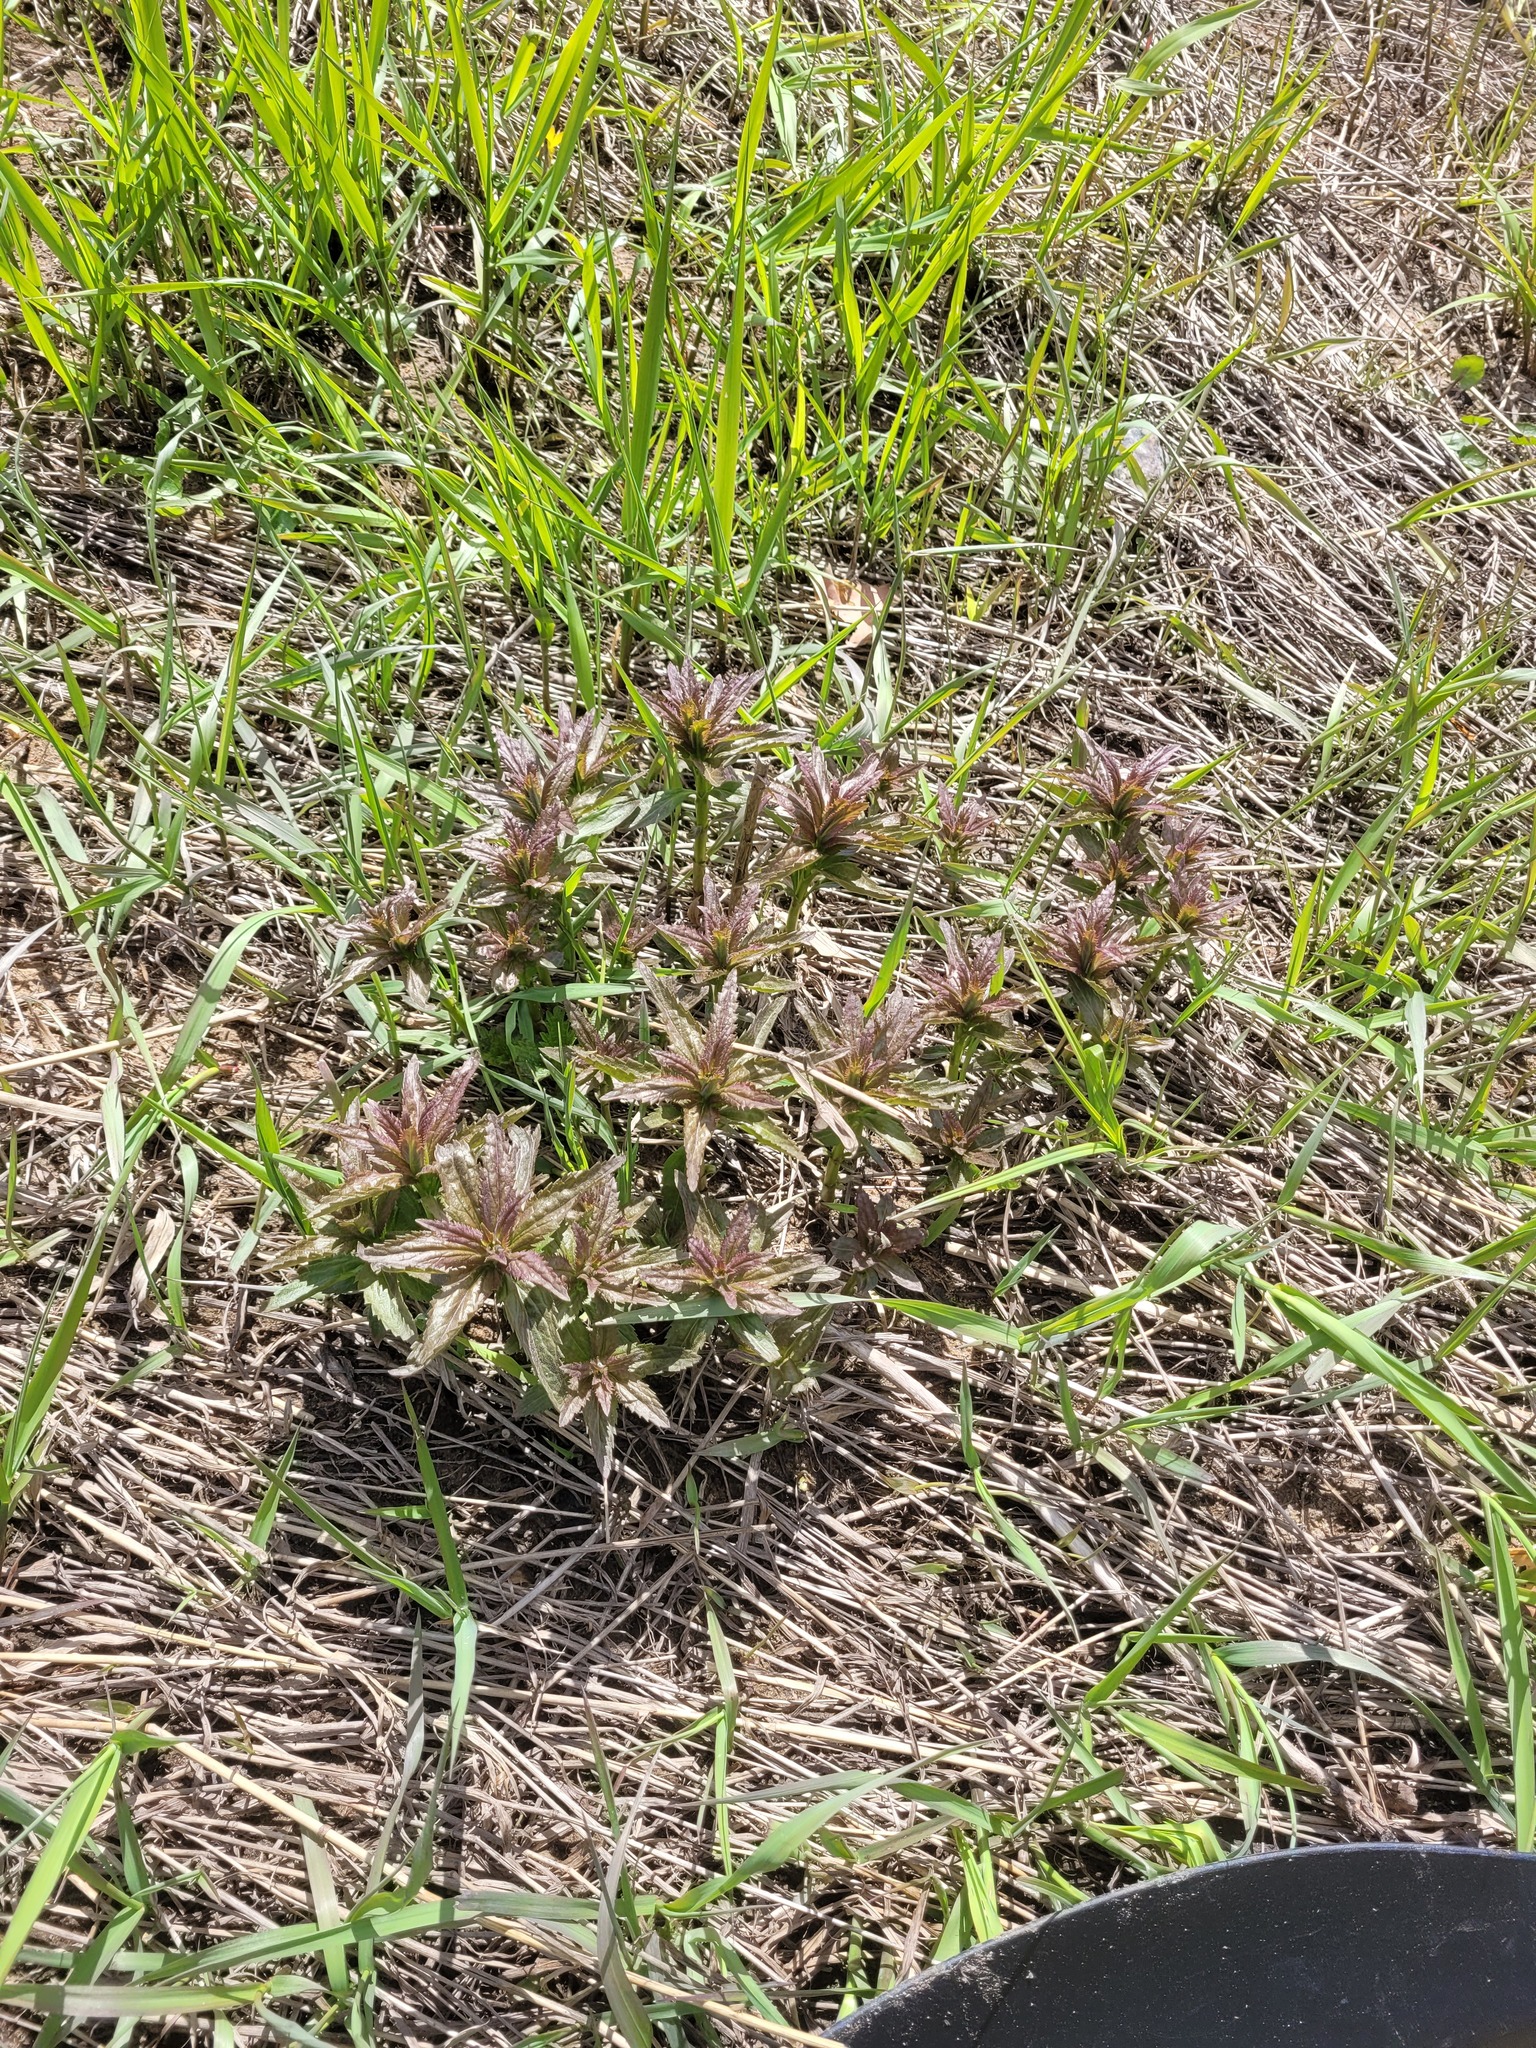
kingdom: Plantae
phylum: Tracheophyta
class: Magnoliopsida
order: Lamiales
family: Plantaginaceae
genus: Veronica
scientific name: Veronica longifolia
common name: Garden speedwell
